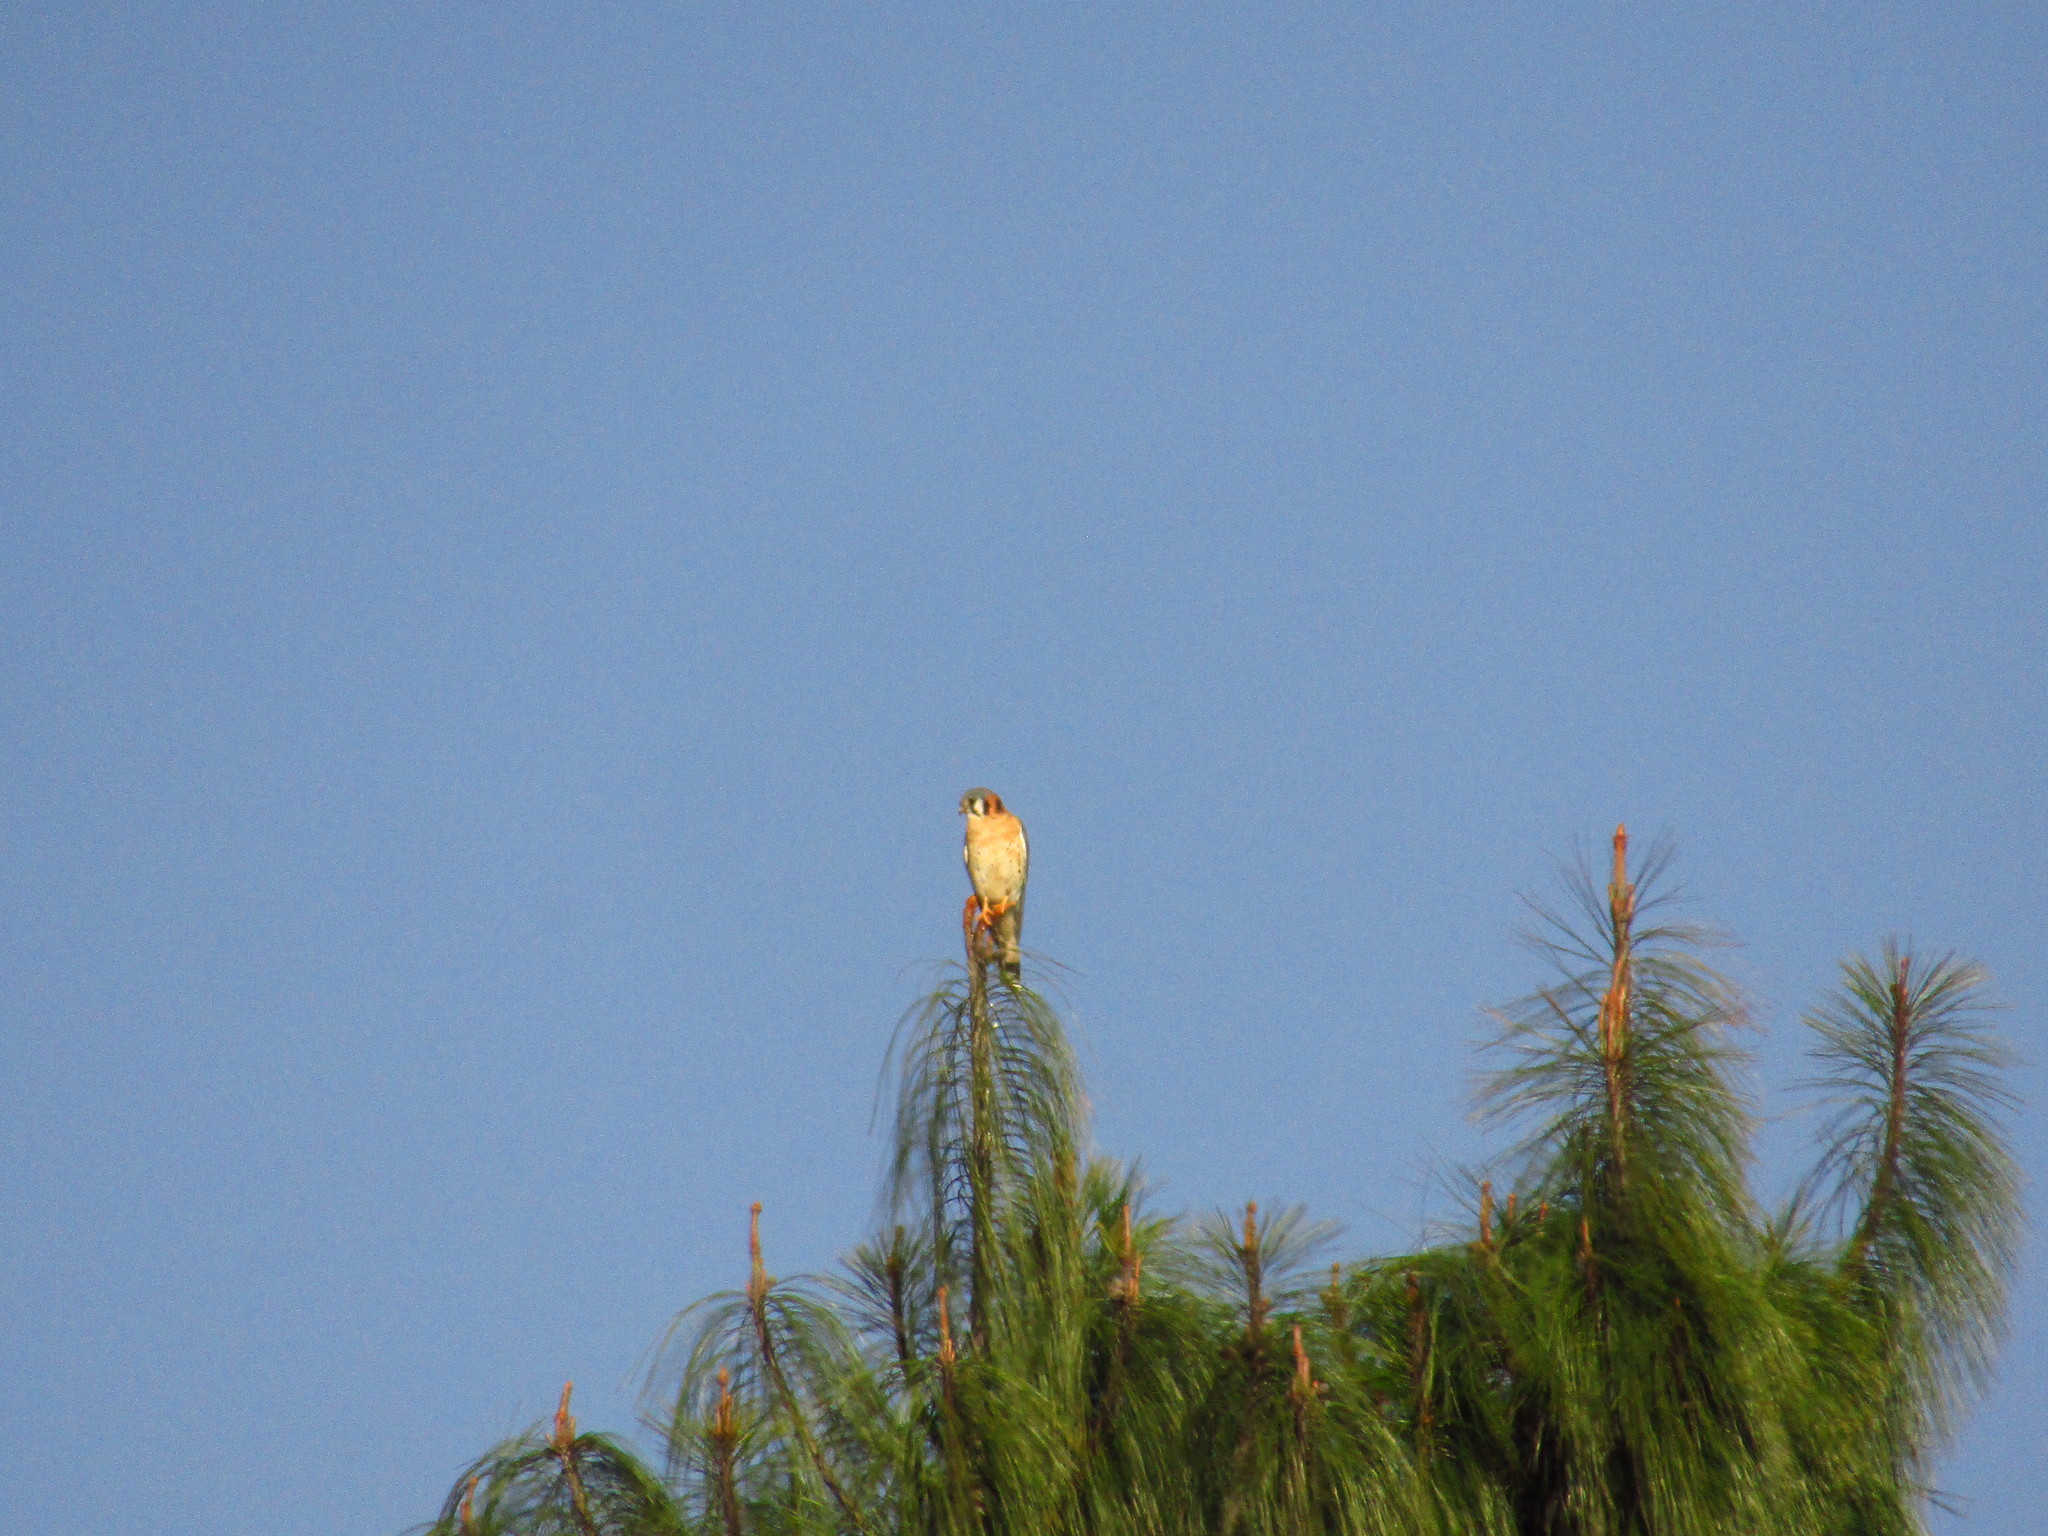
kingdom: Animalia
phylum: Chordata
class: Aves
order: Falconiformes
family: Falconidae
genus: Falco
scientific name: Falco sparverius
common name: American kestrel
